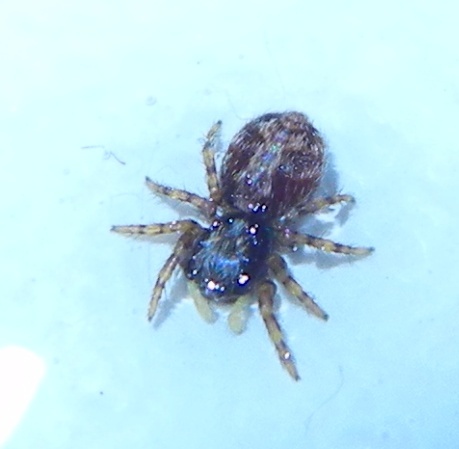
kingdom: Animalia
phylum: Arthropoda
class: Arachnida
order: Araneae
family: Salticidae
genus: Pseudeuophrys
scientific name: Pseudeuophrys lanigera
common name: Jumping spider
